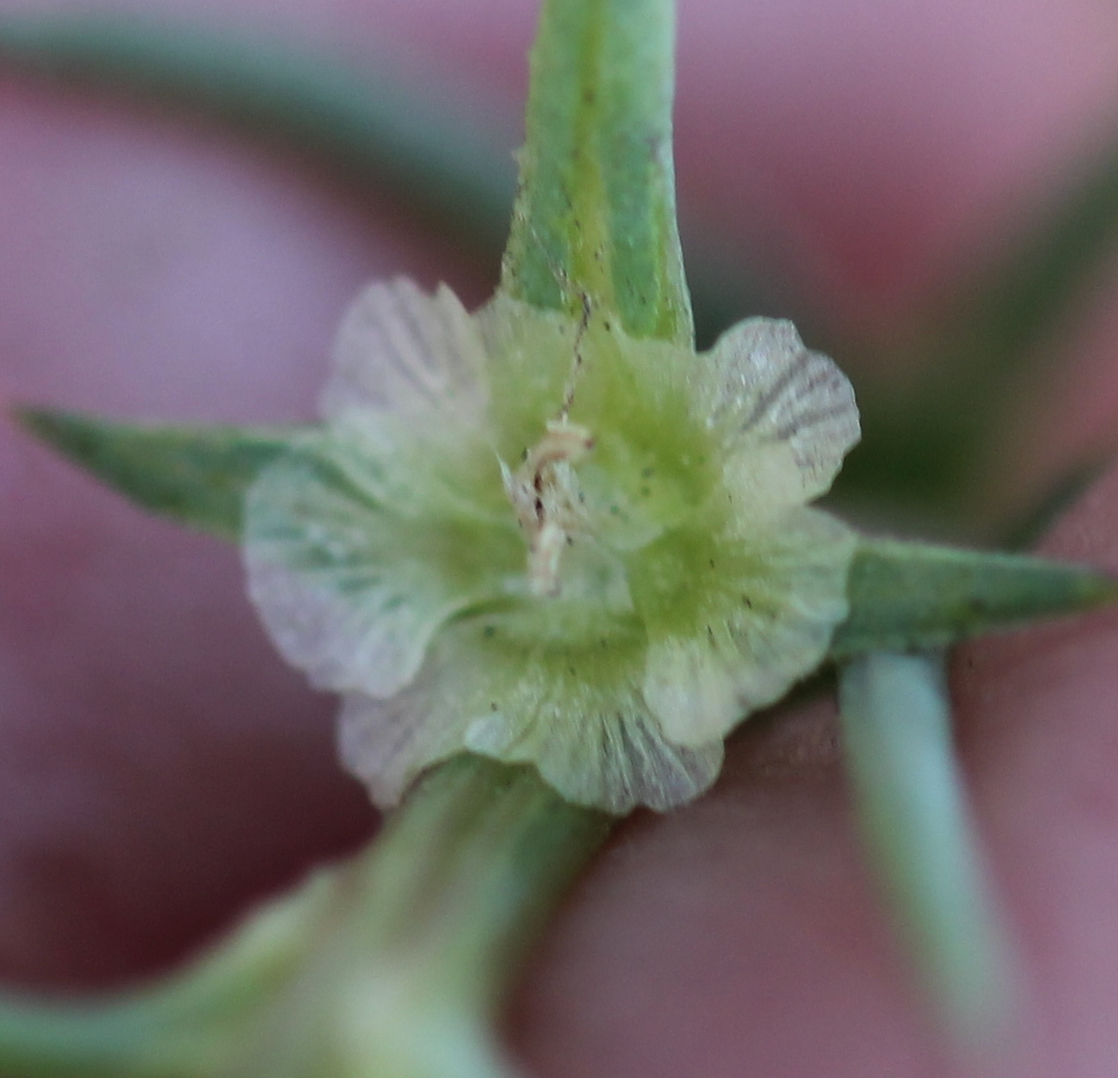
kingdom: Plantae
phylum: Tracheophyta
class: Magnoliopsida
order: Caryophyllales
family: Amaranthaceae
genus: Salsola
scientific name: Salsola australis
